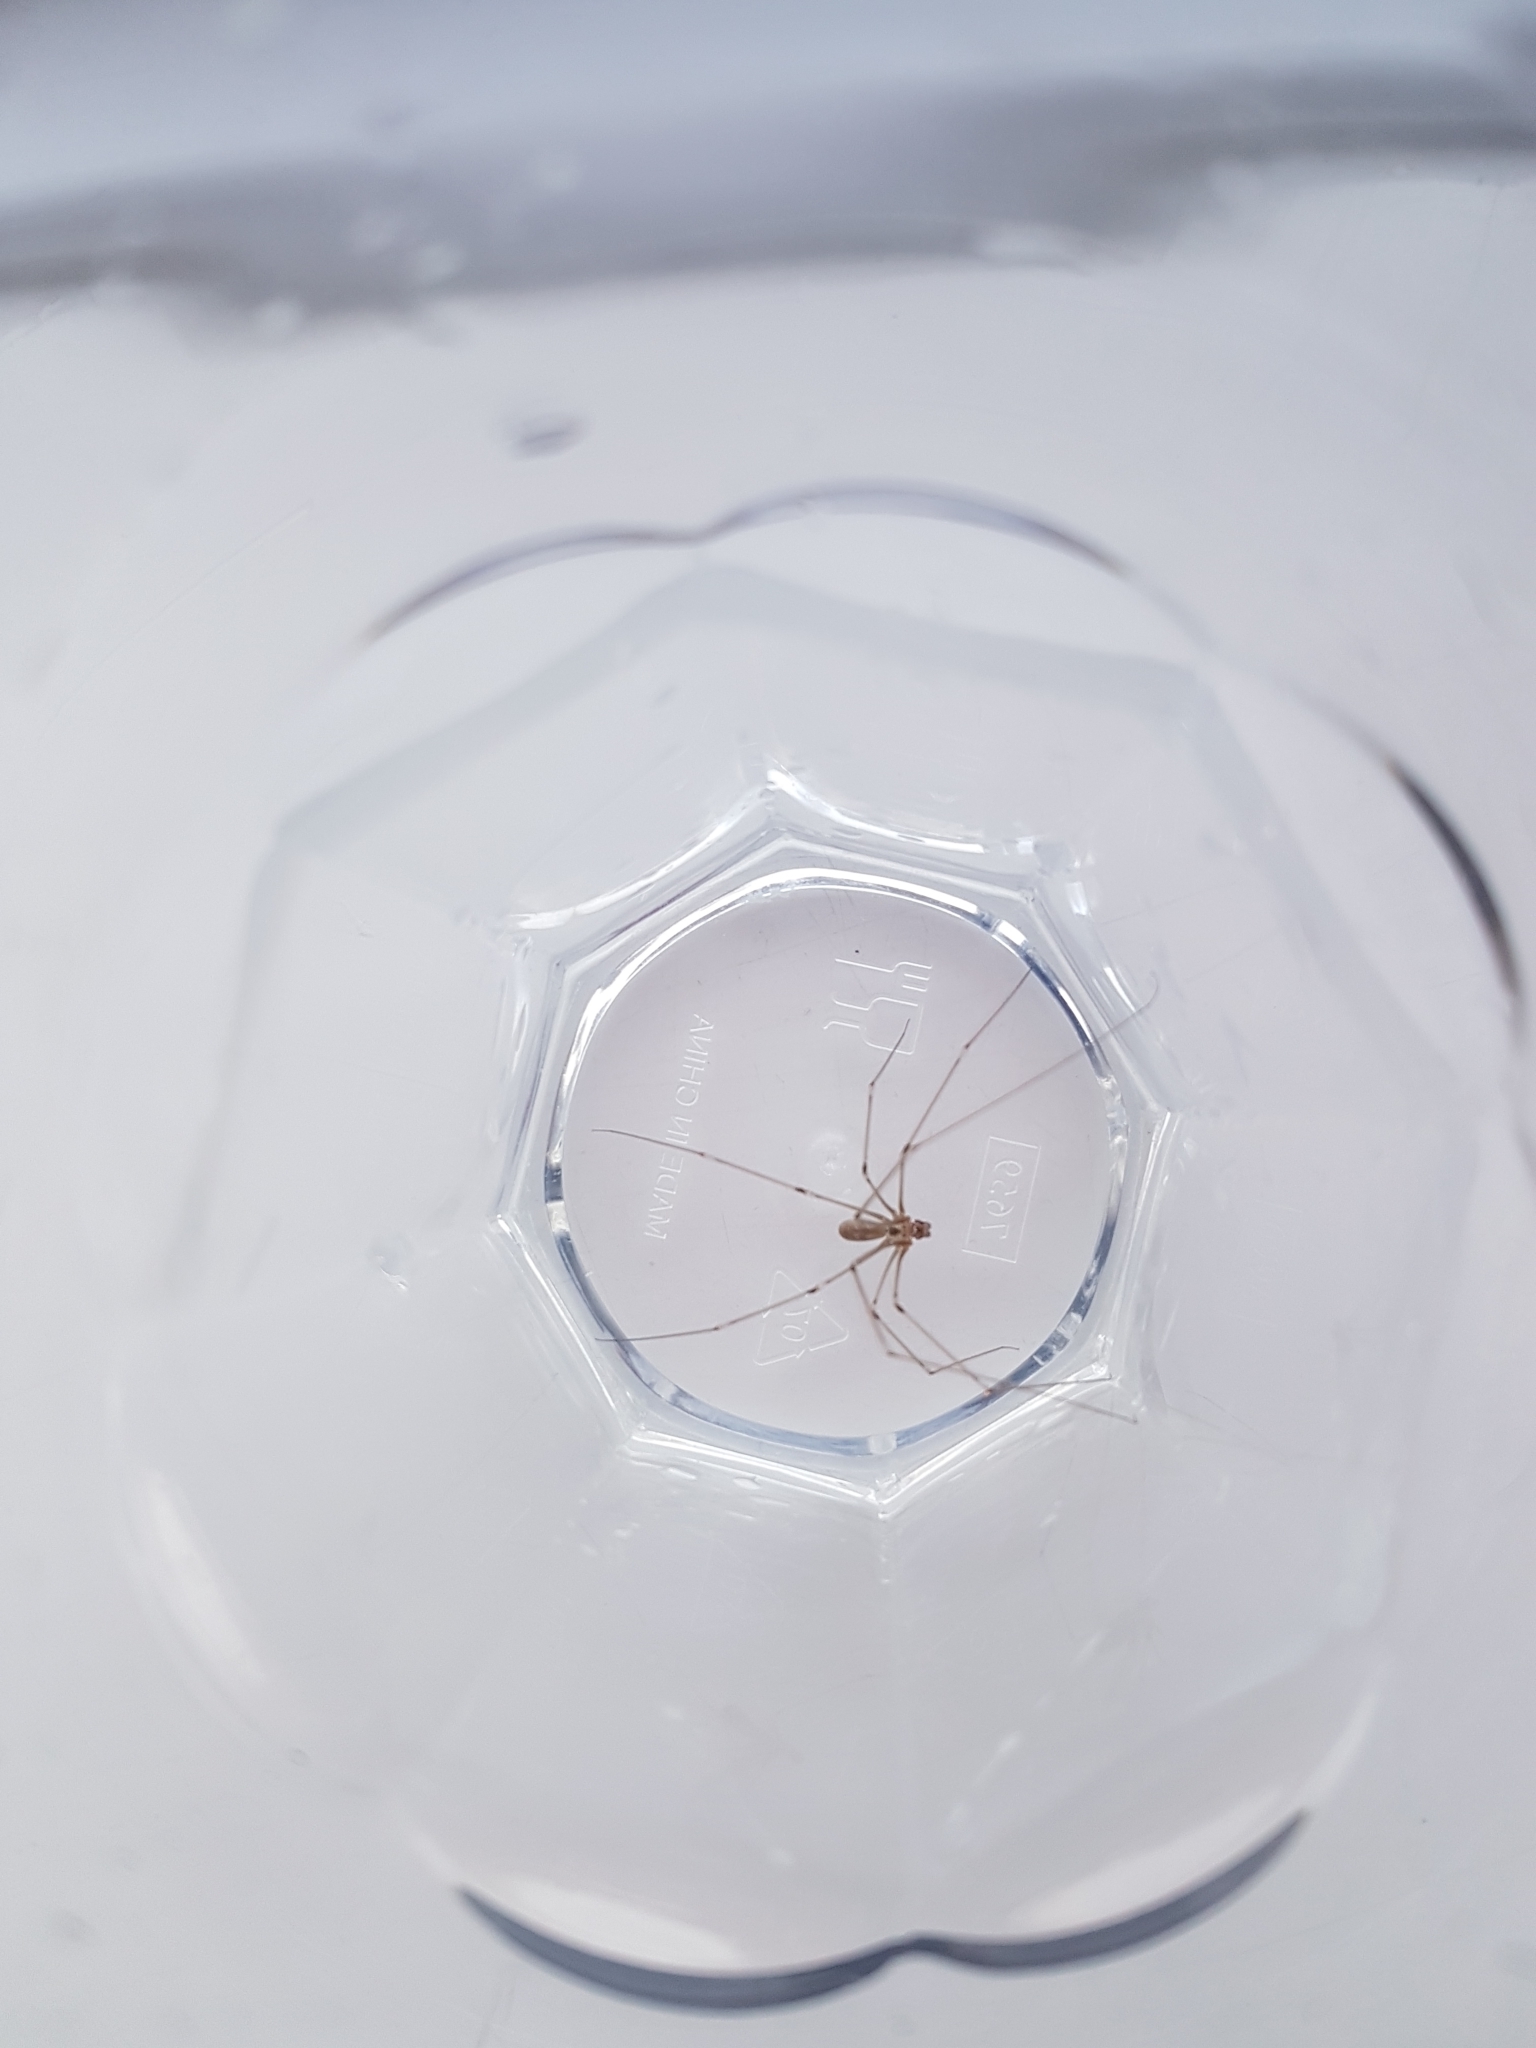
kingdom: Animalia
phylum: Arthropoda
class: Arachnida
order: Araneae
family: Pholcidae
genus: Pholcus
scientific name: Pholcus phalangioides
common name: Longbodied cellar spider
